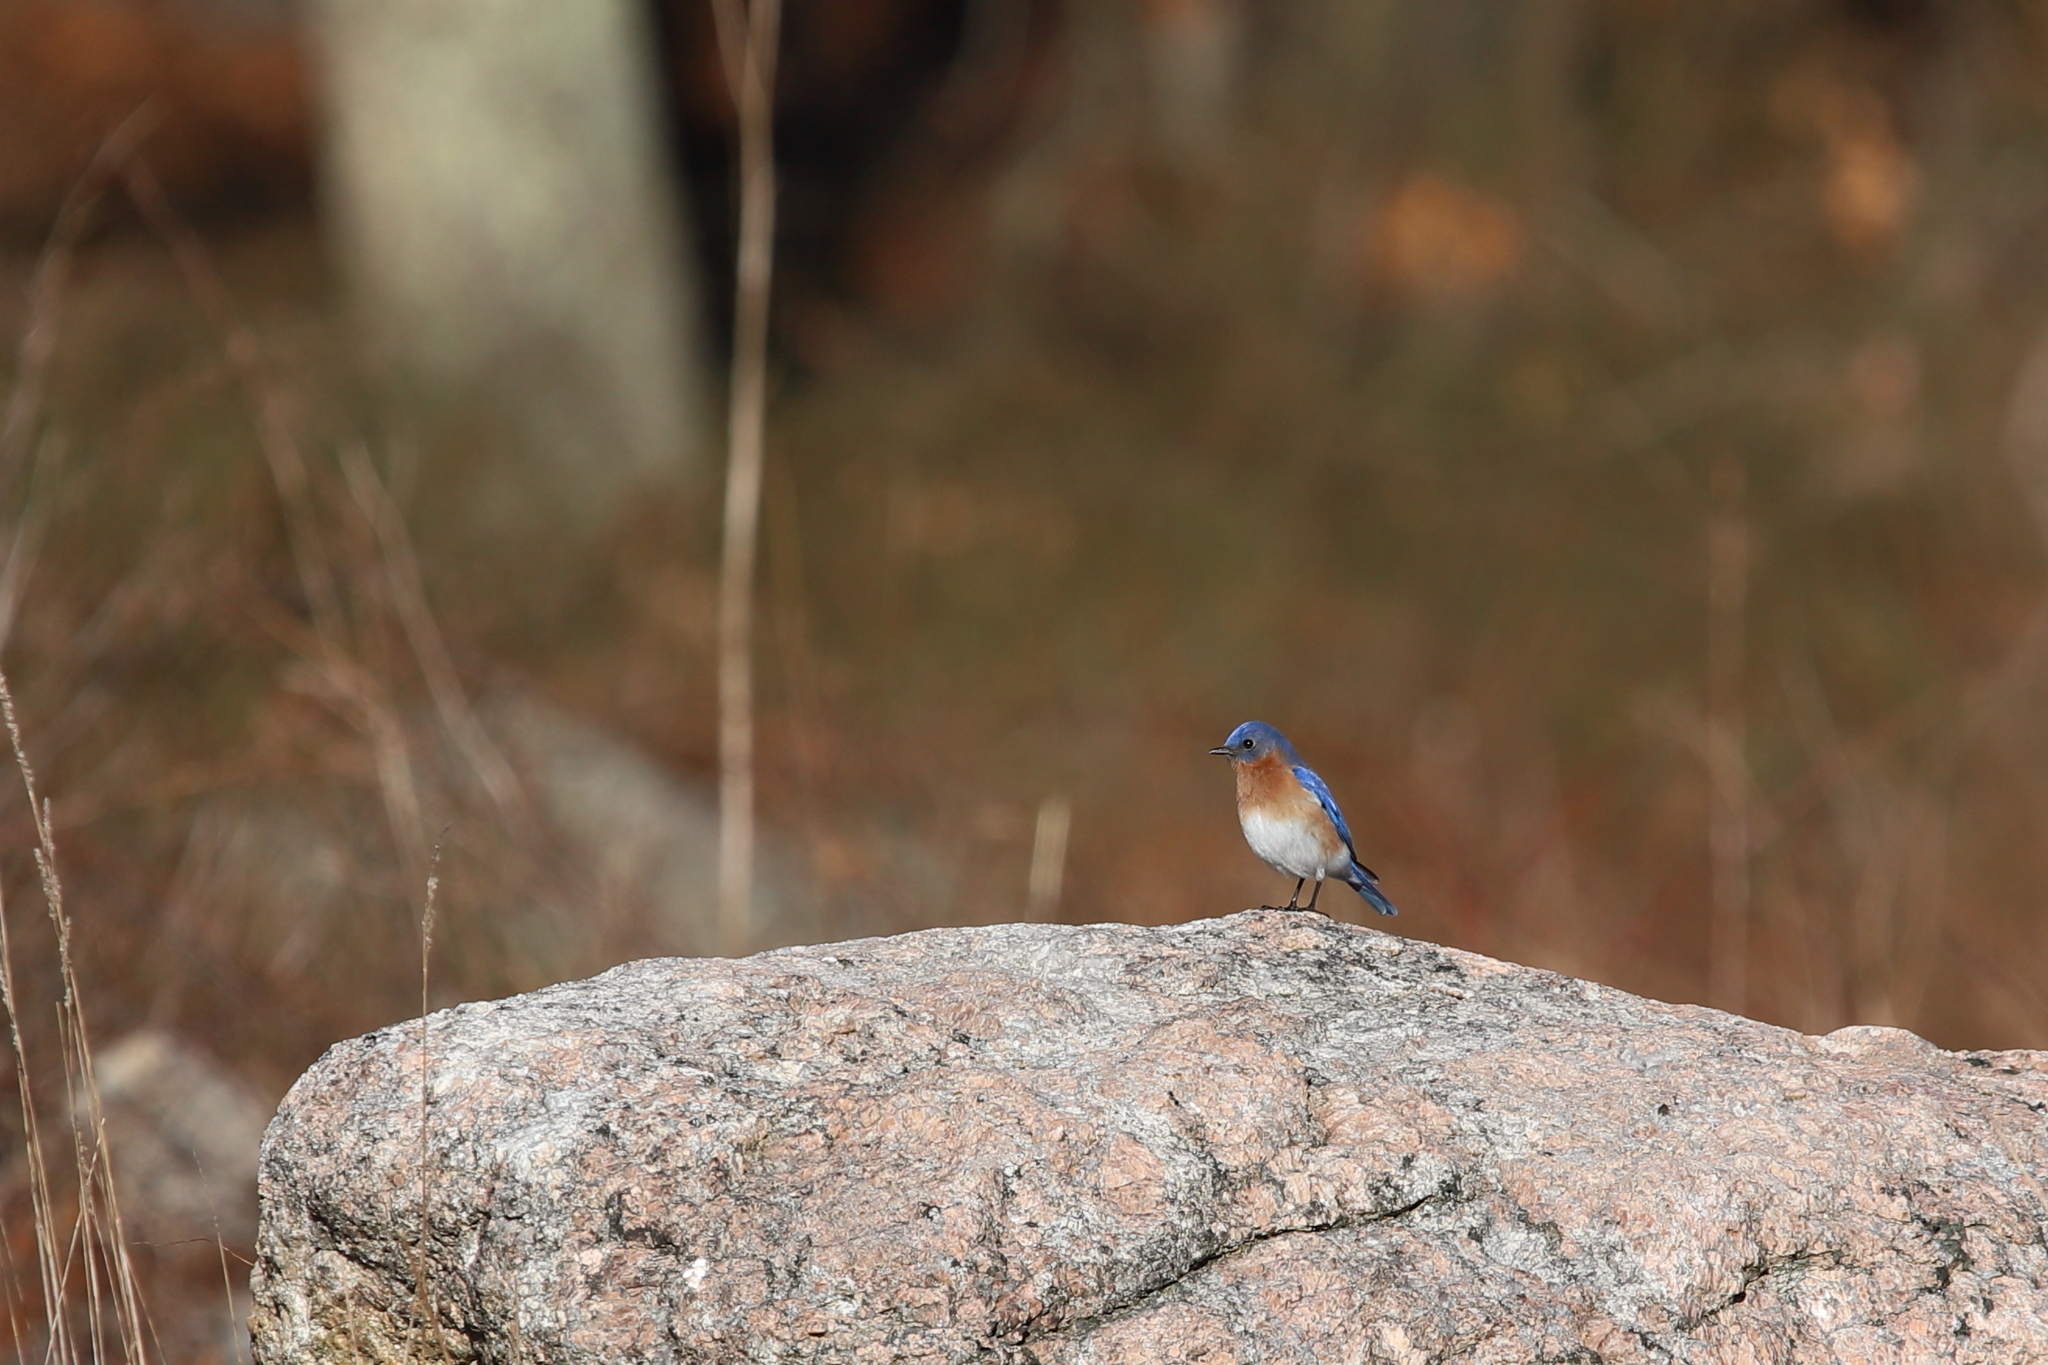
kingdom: Animalia
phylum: Chordata
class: Aves
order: Passeriformes
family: Turdidae
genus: Sialia
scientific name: Sialia sialis
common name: Eastern bluebird
